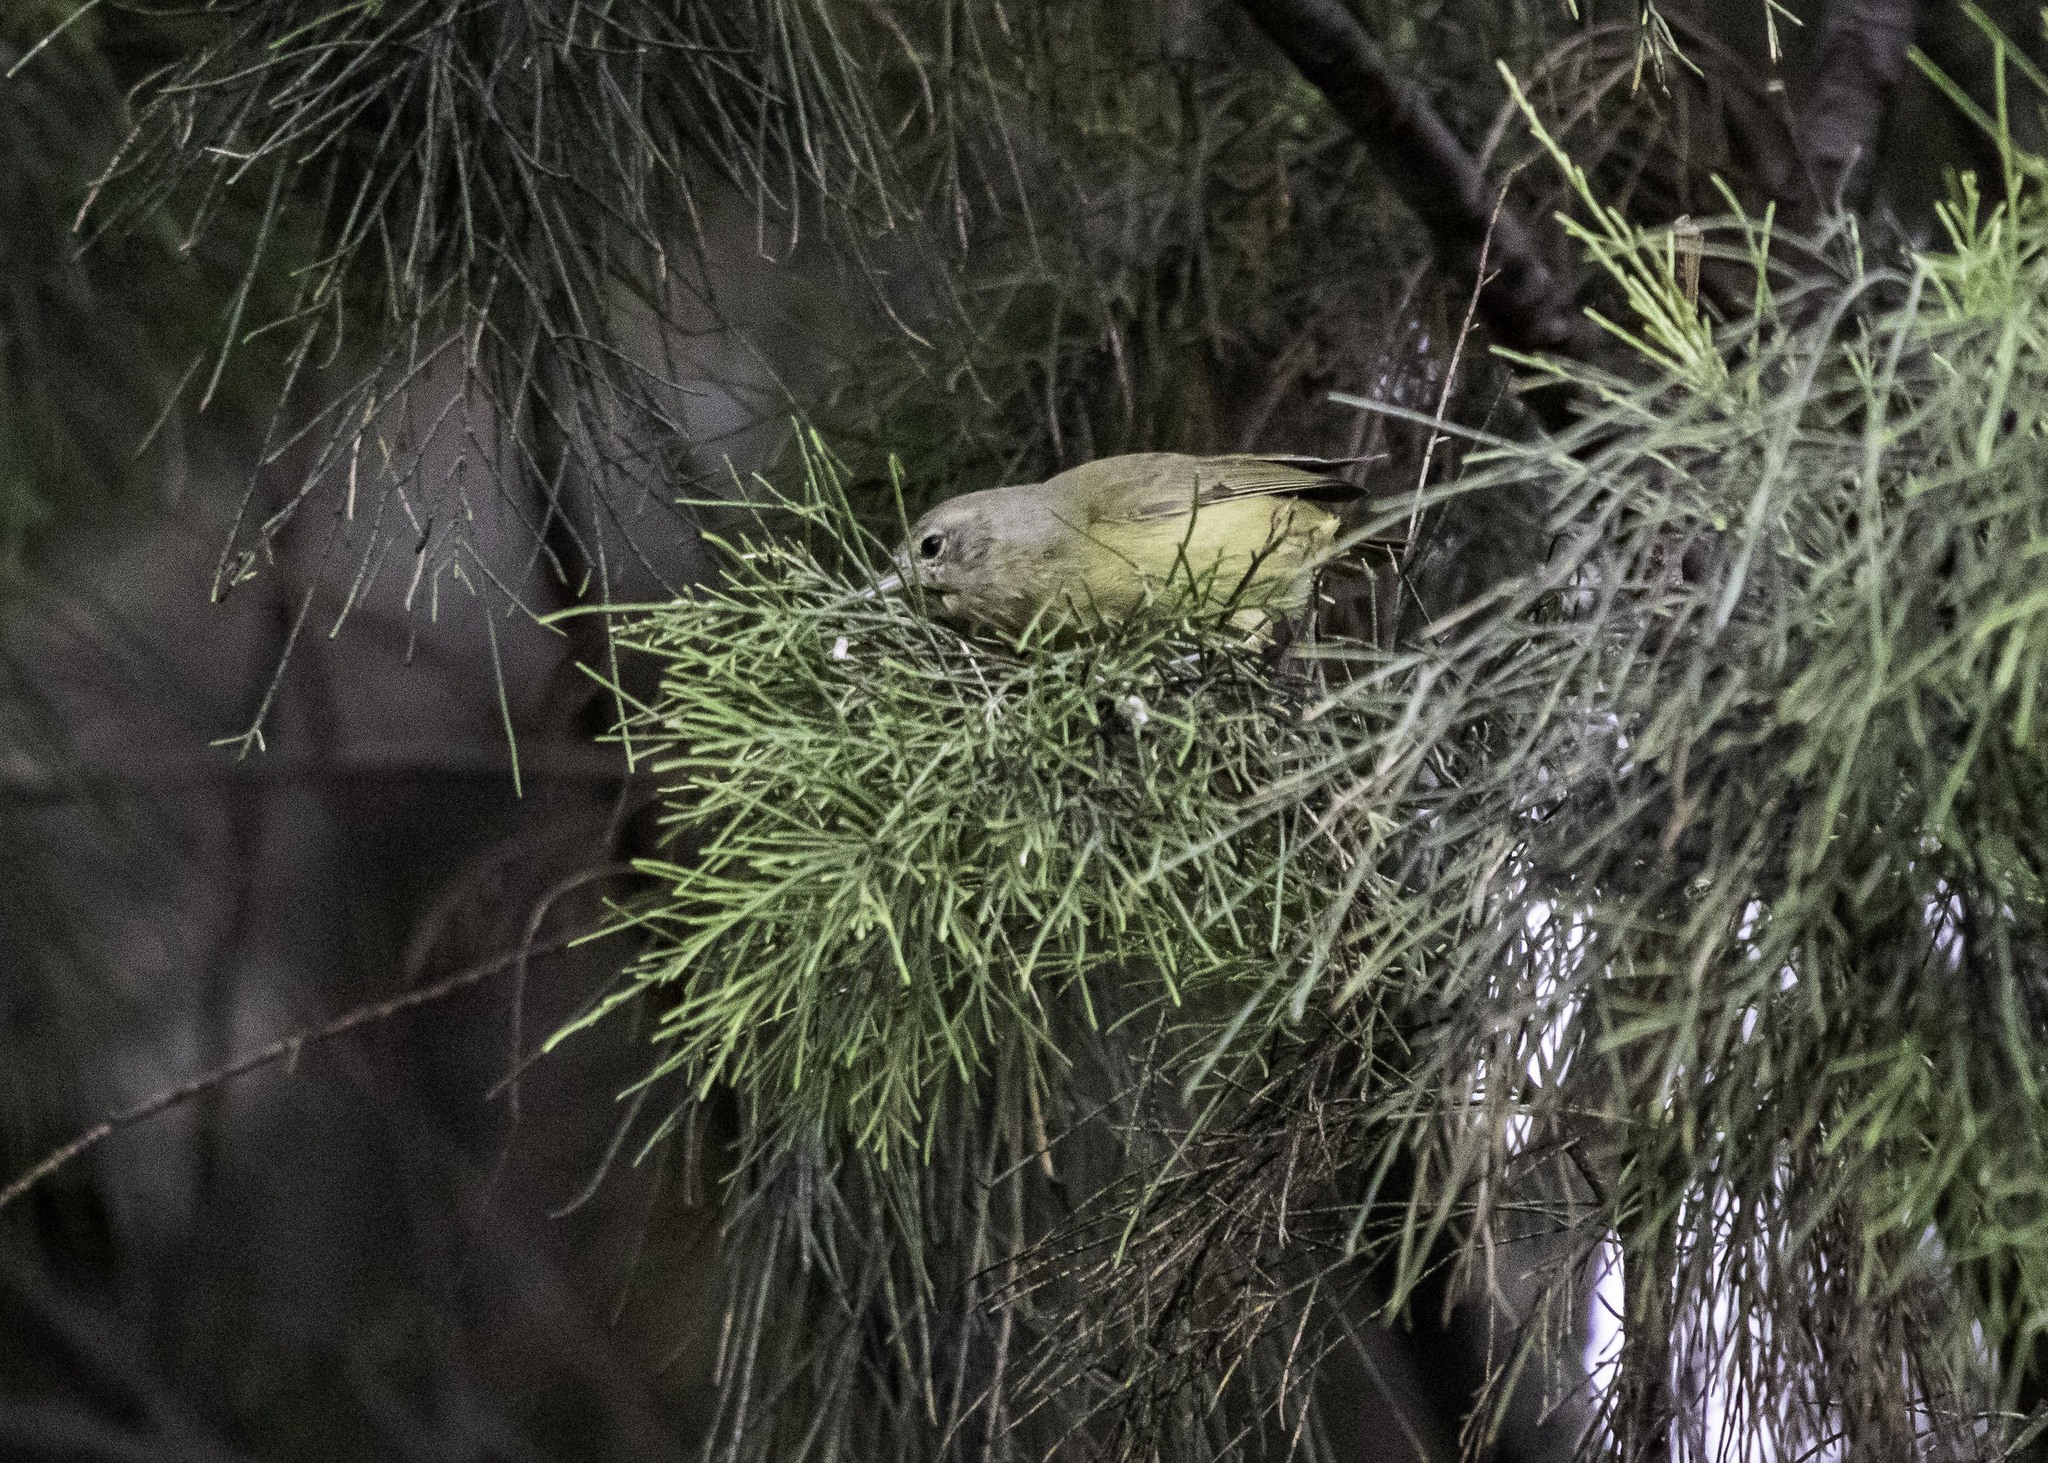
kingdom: Animalia
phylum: Chordata
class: Aves
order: Passeriformes
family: Parulidae
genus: Leiothlypis
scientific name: Leiothlypis celata
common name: Orange-crowned warbler
